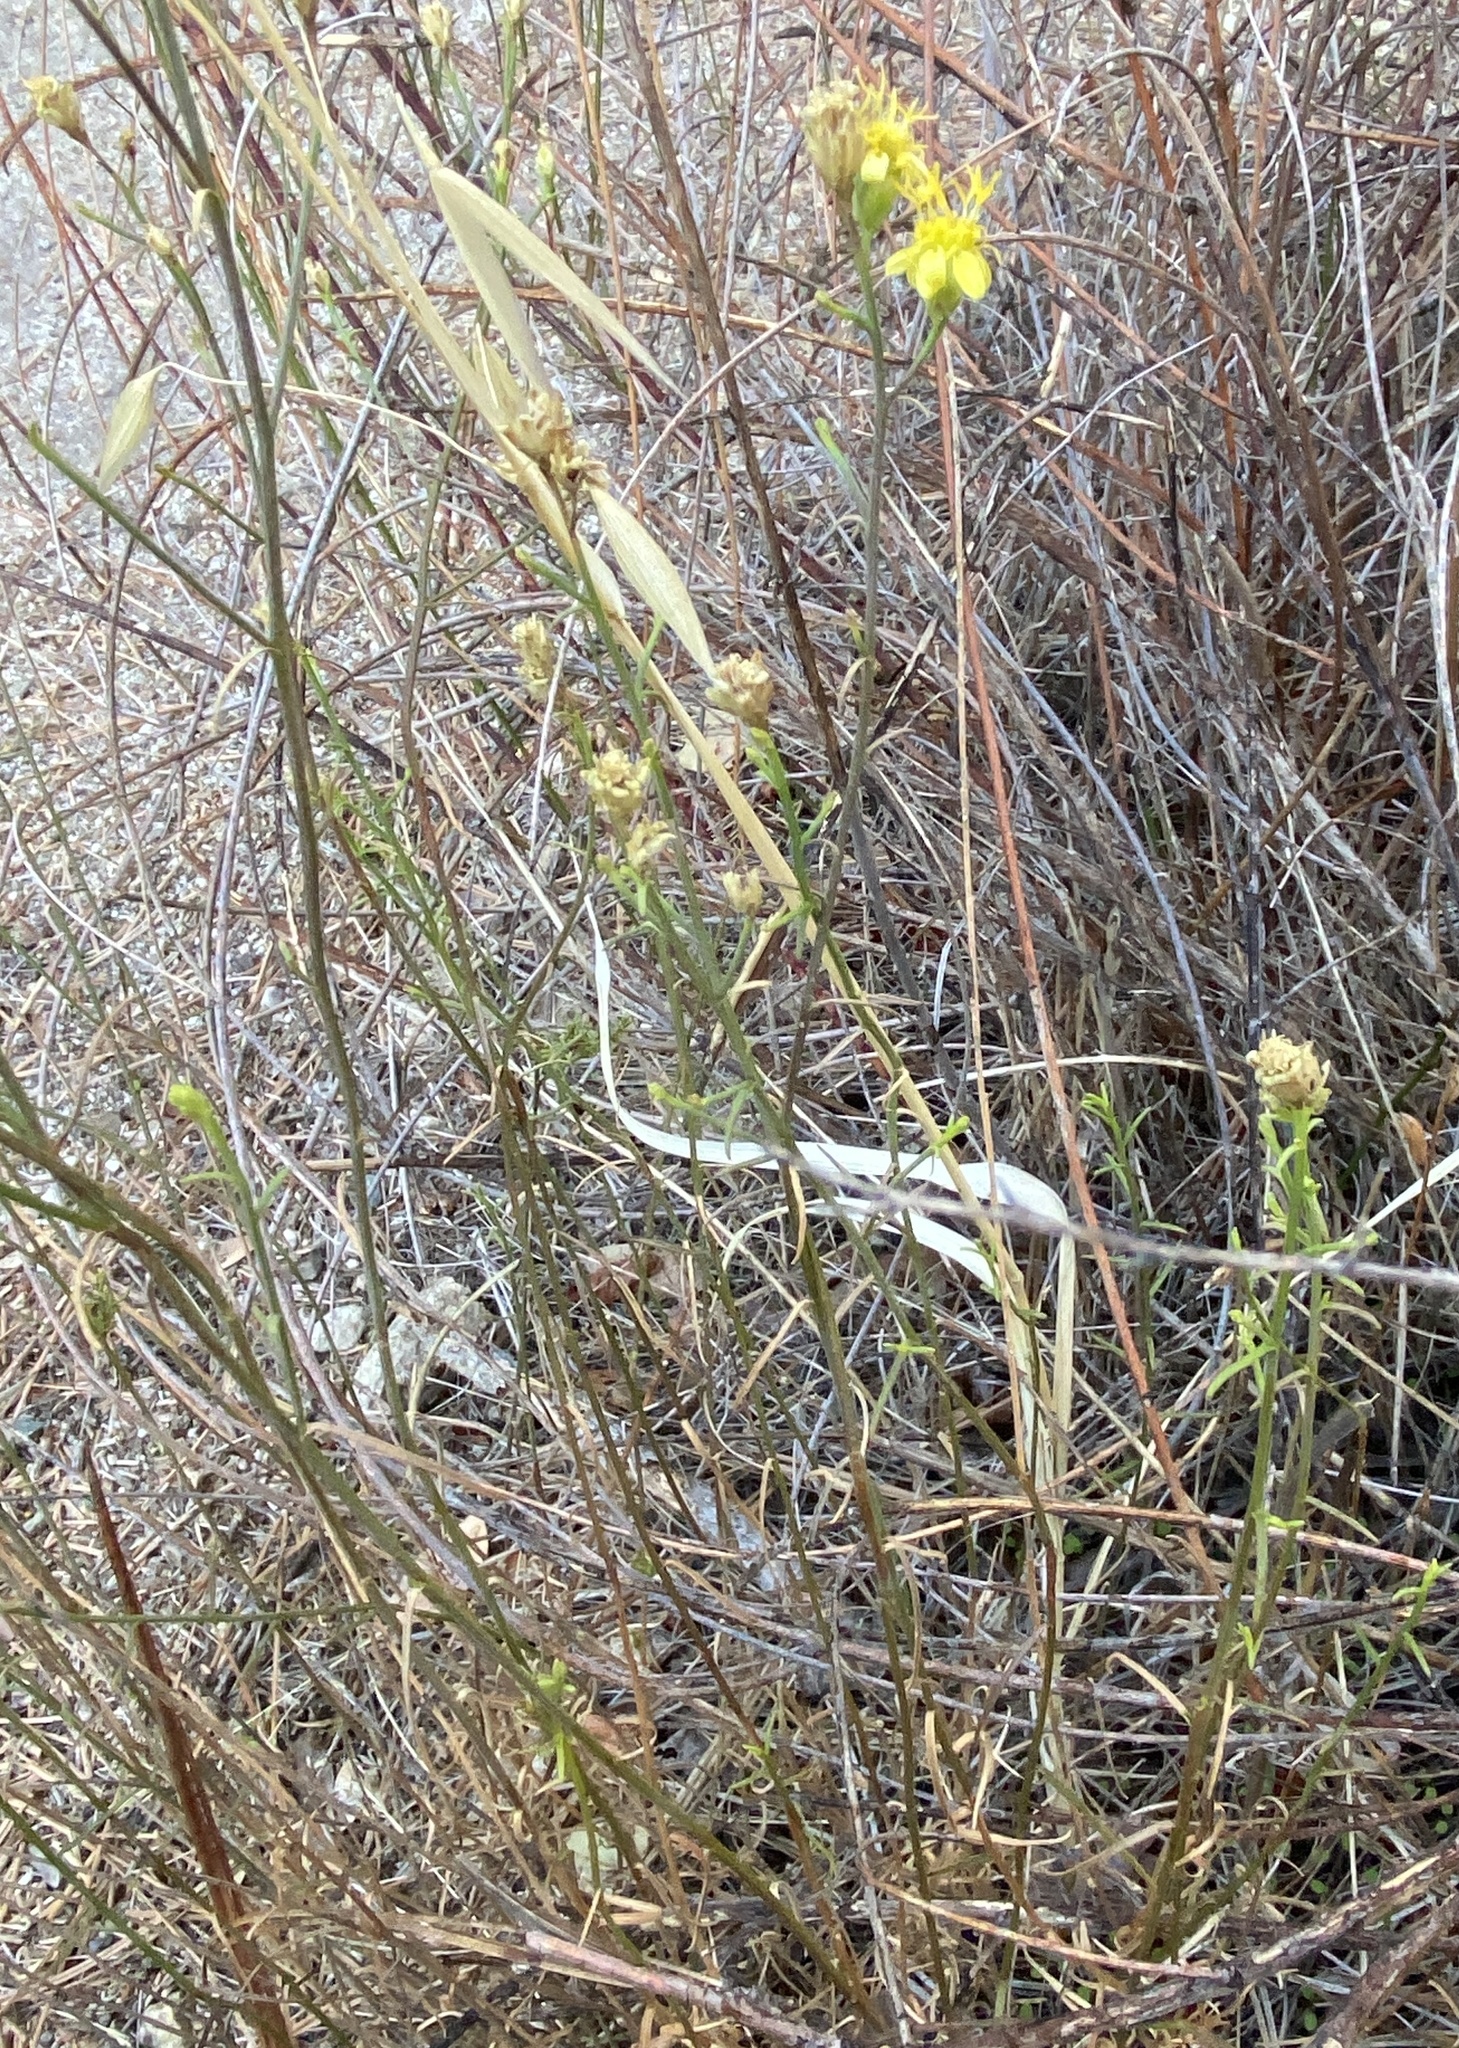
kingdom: Plantae
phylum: Tracheophyta
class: Magnoliopsida
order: Asterales
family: Asteraceae
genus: Gutierrezia
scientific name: Gutierrezia californica
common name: California matchweed
